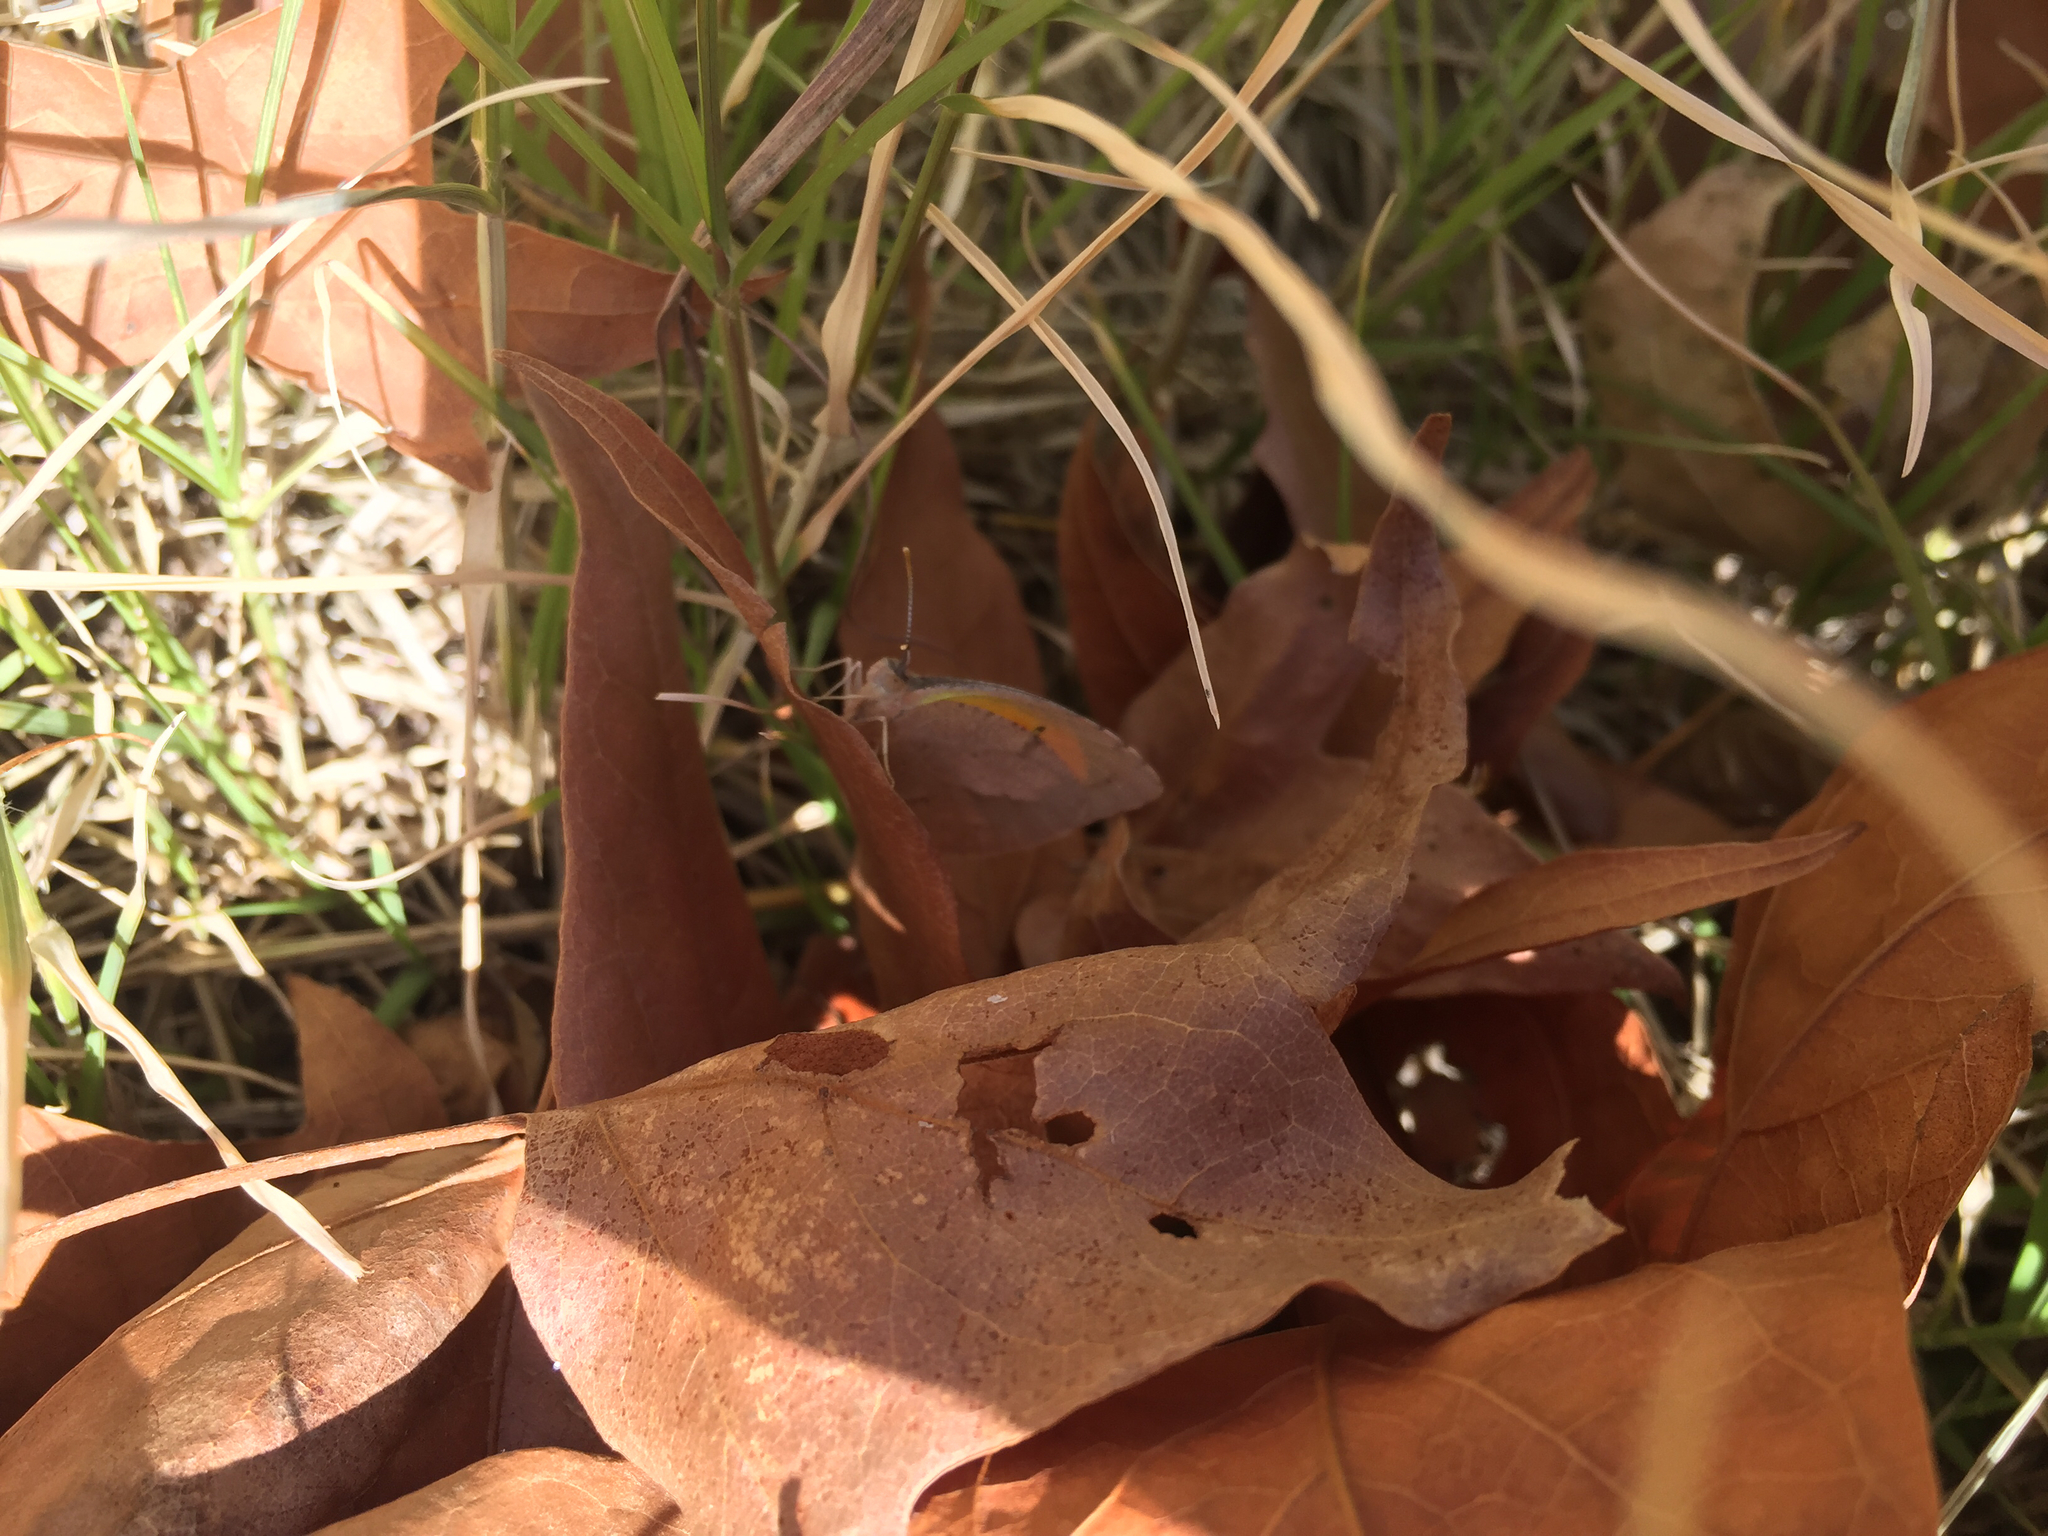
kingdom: Animalia
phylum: Arthropoda
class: Insecta
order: Lepidoptera
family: Pieridae
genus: Abaeis
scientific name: Abaeis nicippe
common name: Sleepy orange
